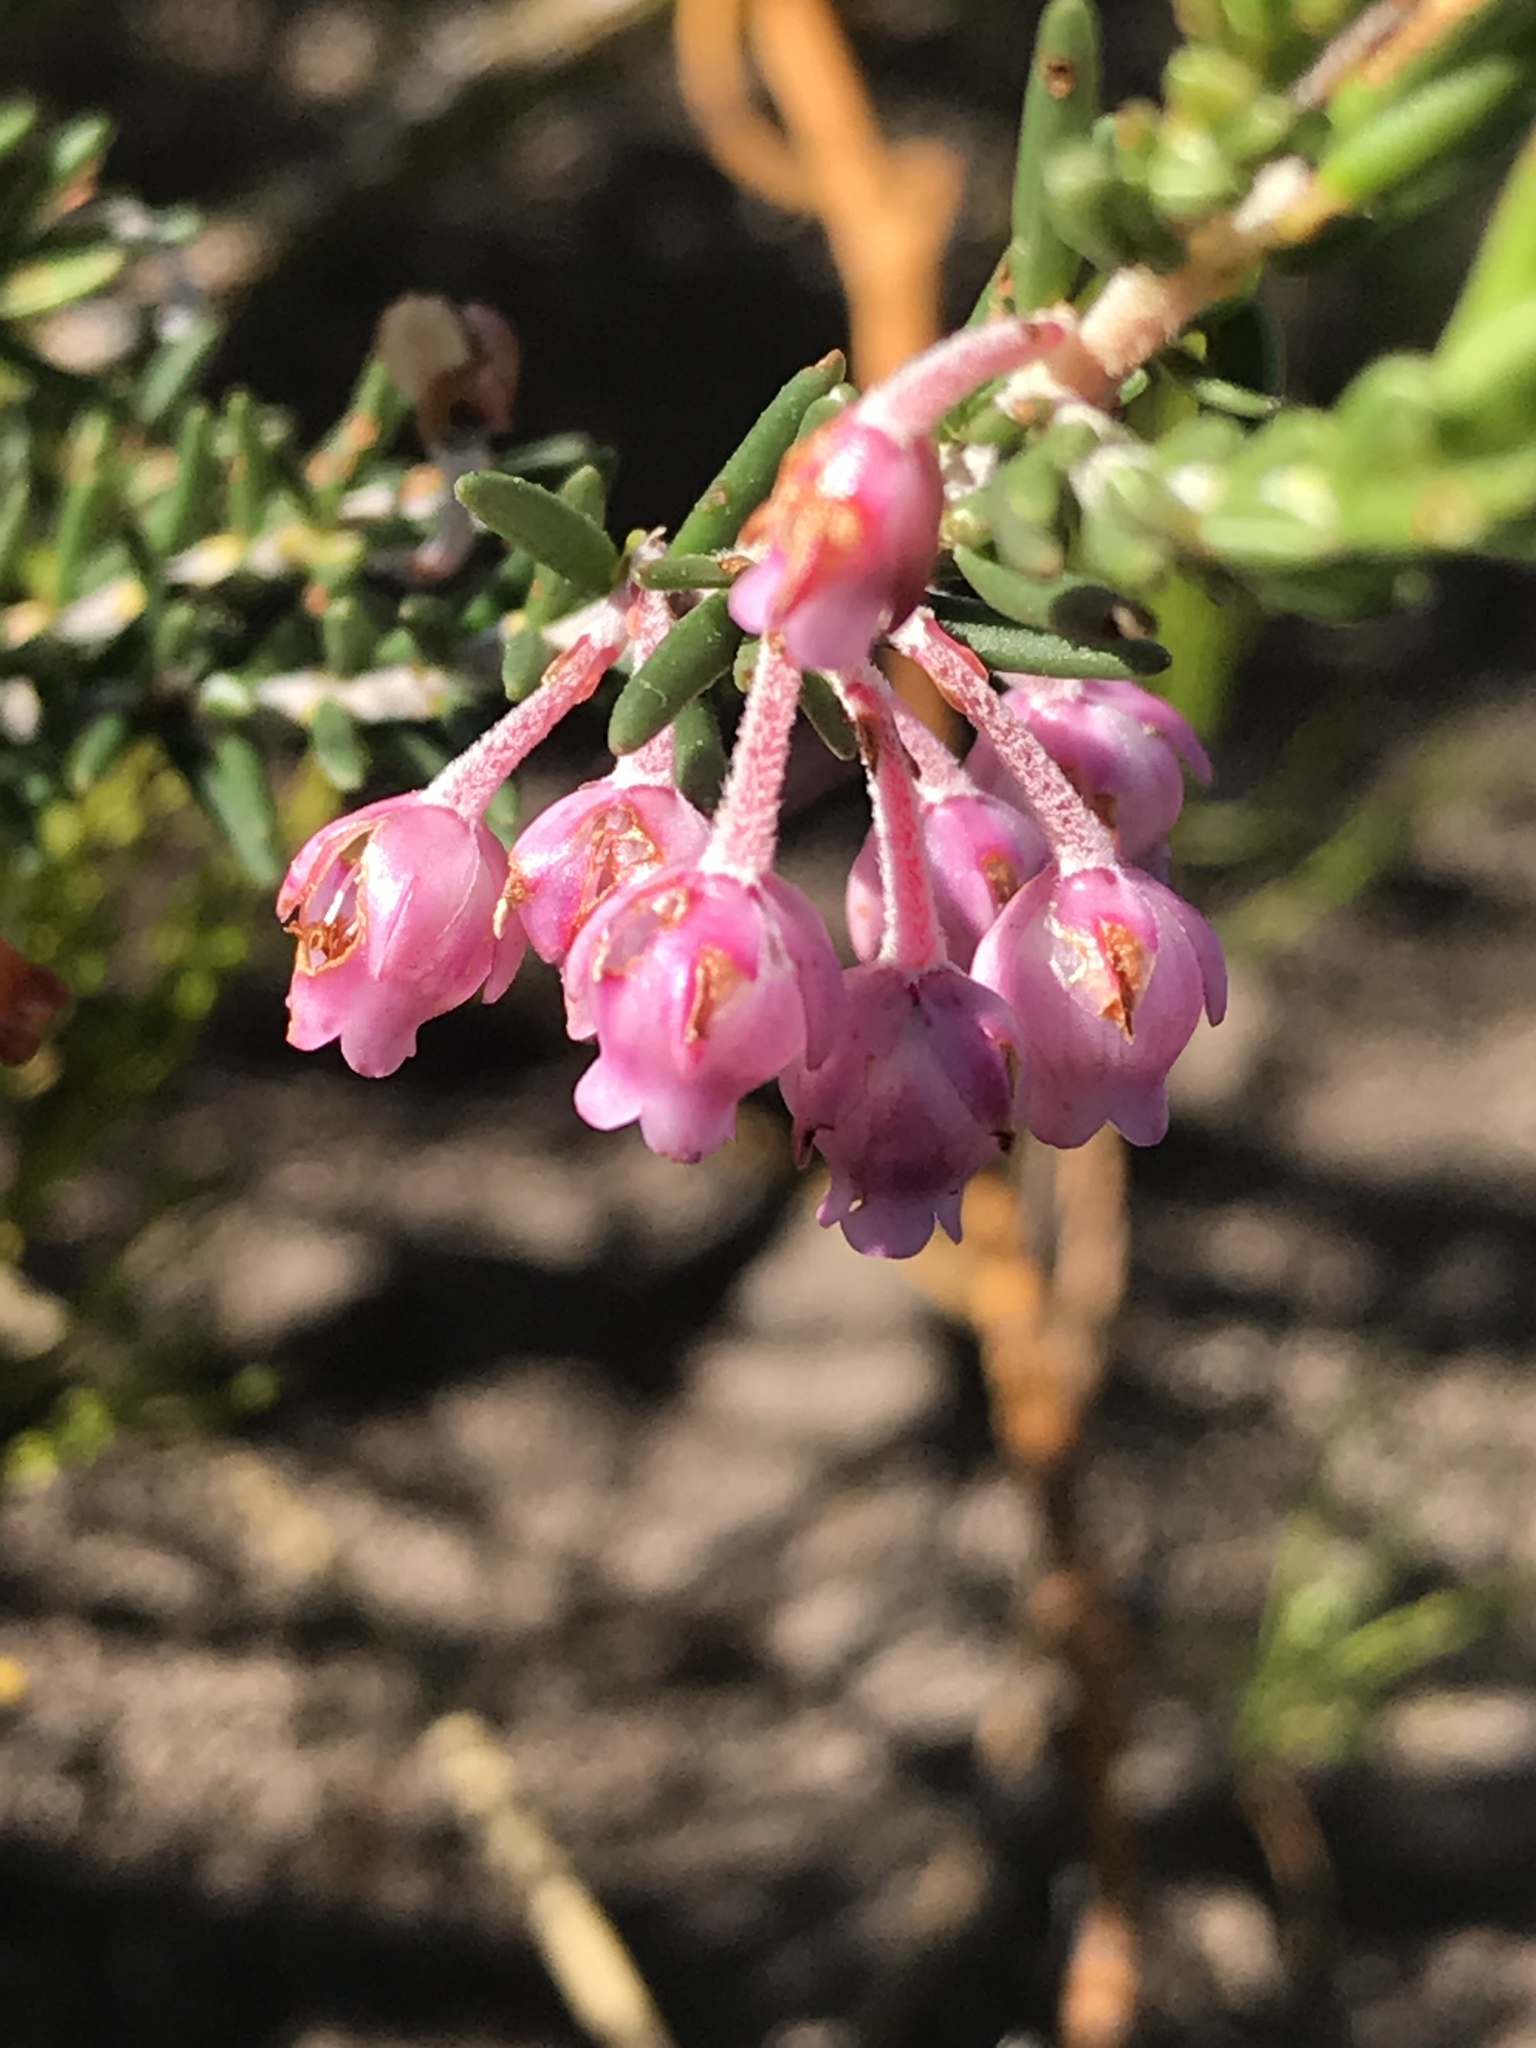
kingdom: Plantae
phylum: Tracheophyta
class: Magnoliopsida
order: Ericales
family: Ericaceae
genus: Erica
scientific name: Erica irregularis
